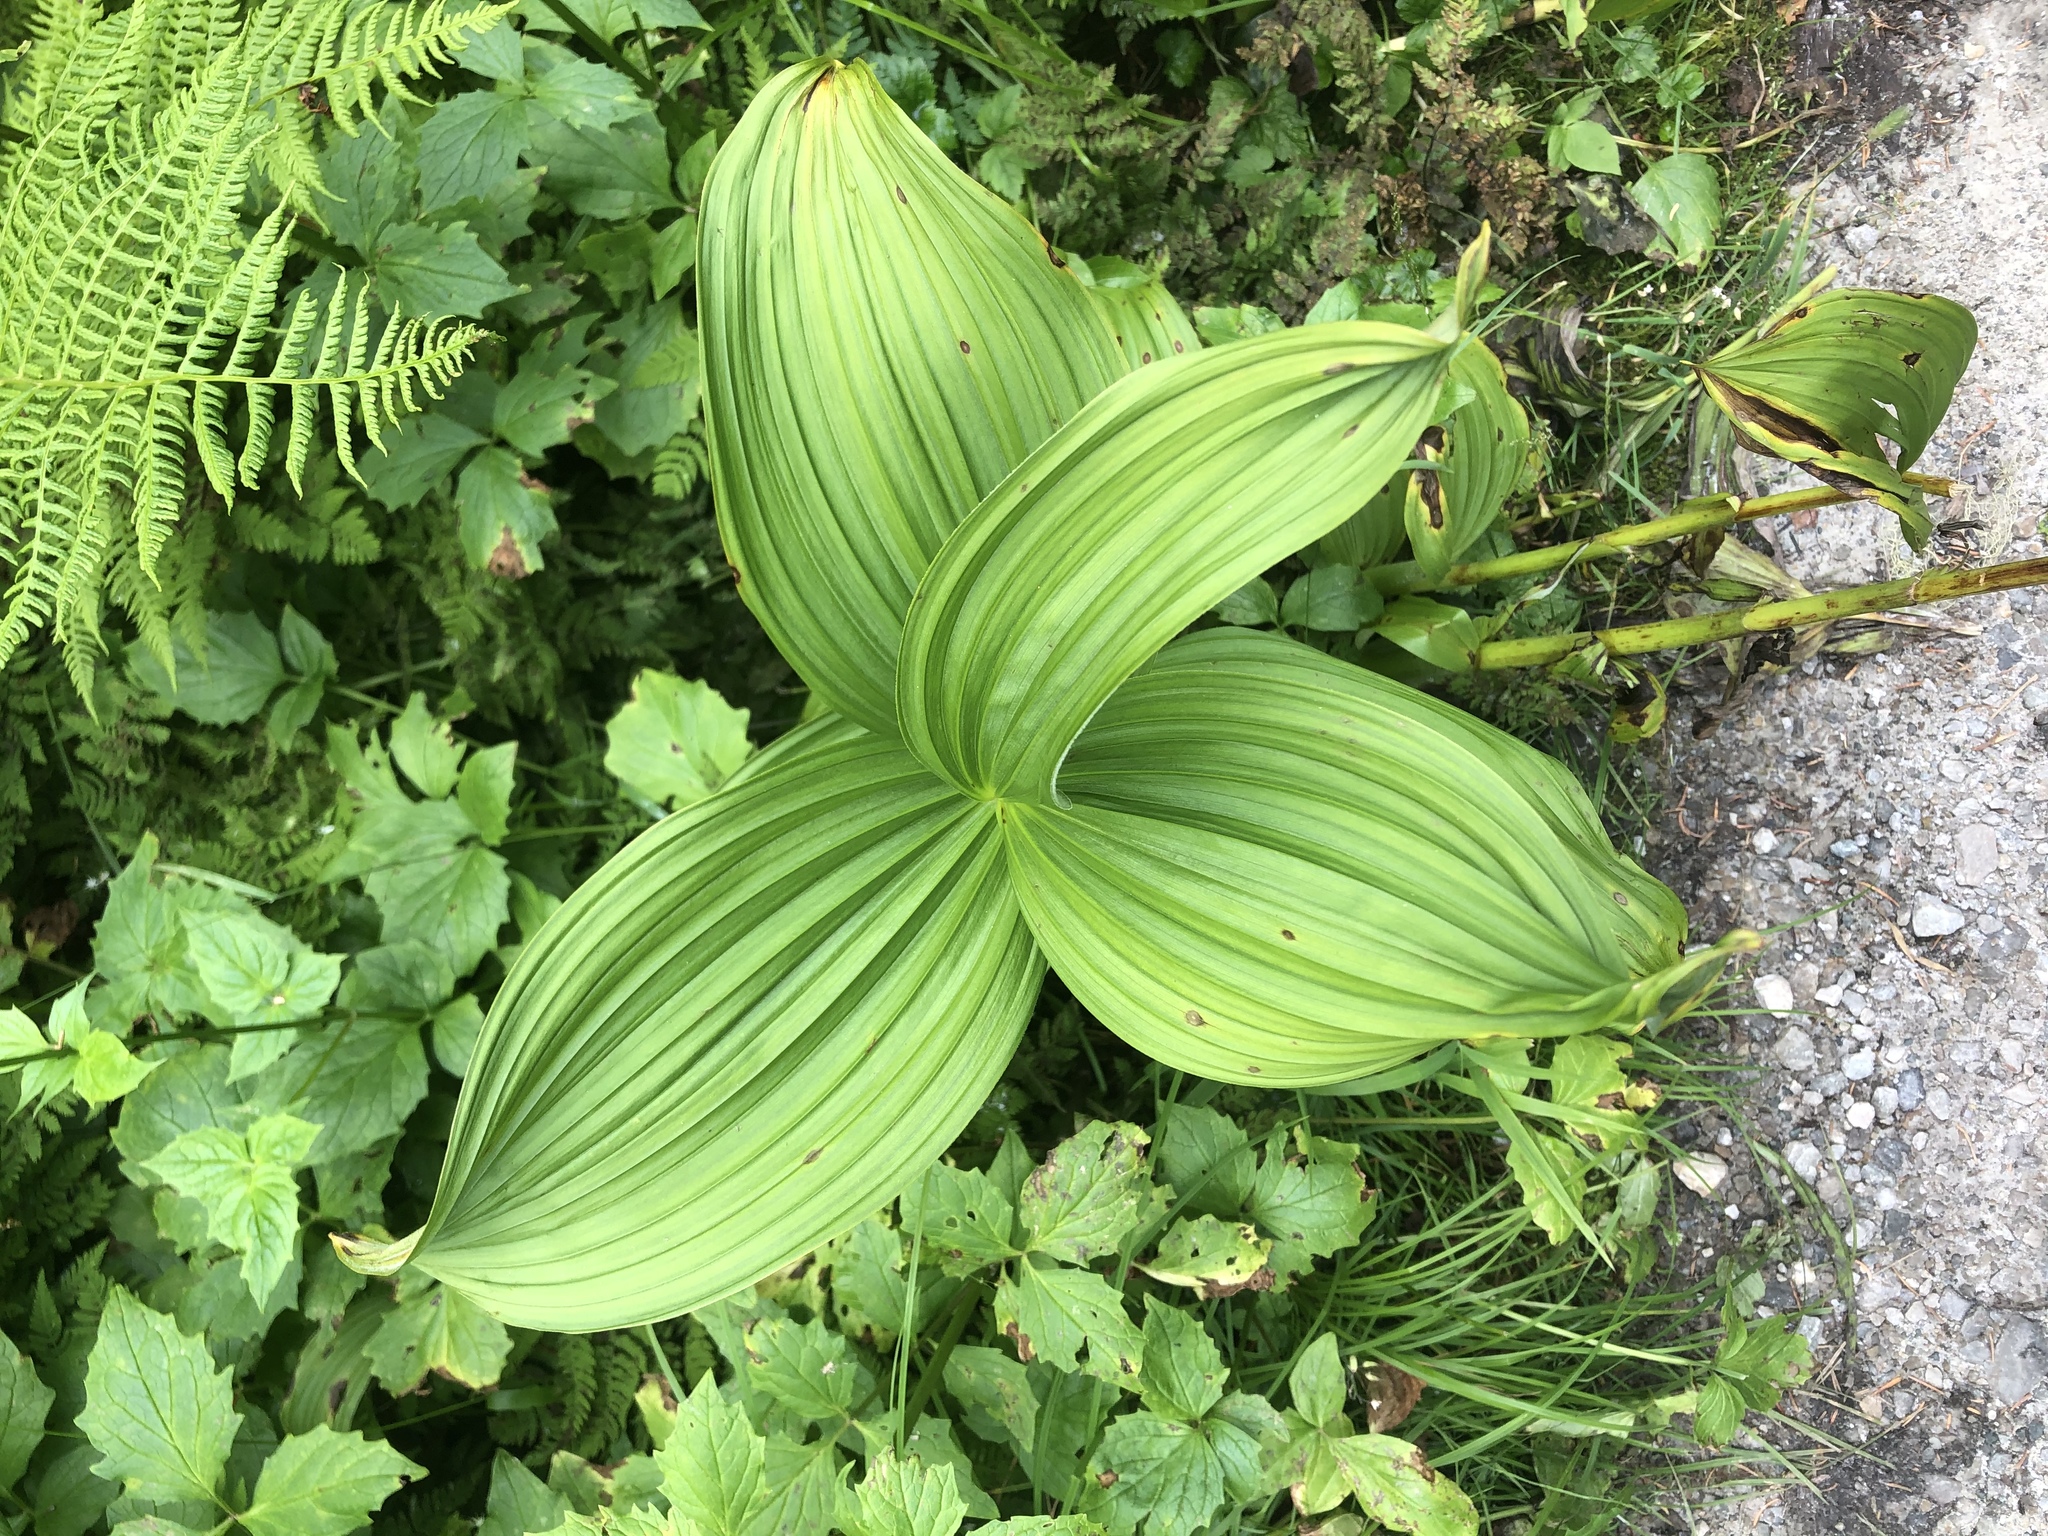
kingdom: Plantae
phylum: Tracheophyta
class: Liliopsida
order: Liliales
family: Melanthiaceae
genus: Veratrum
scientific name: Veratrum viride
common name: American false hellebore
